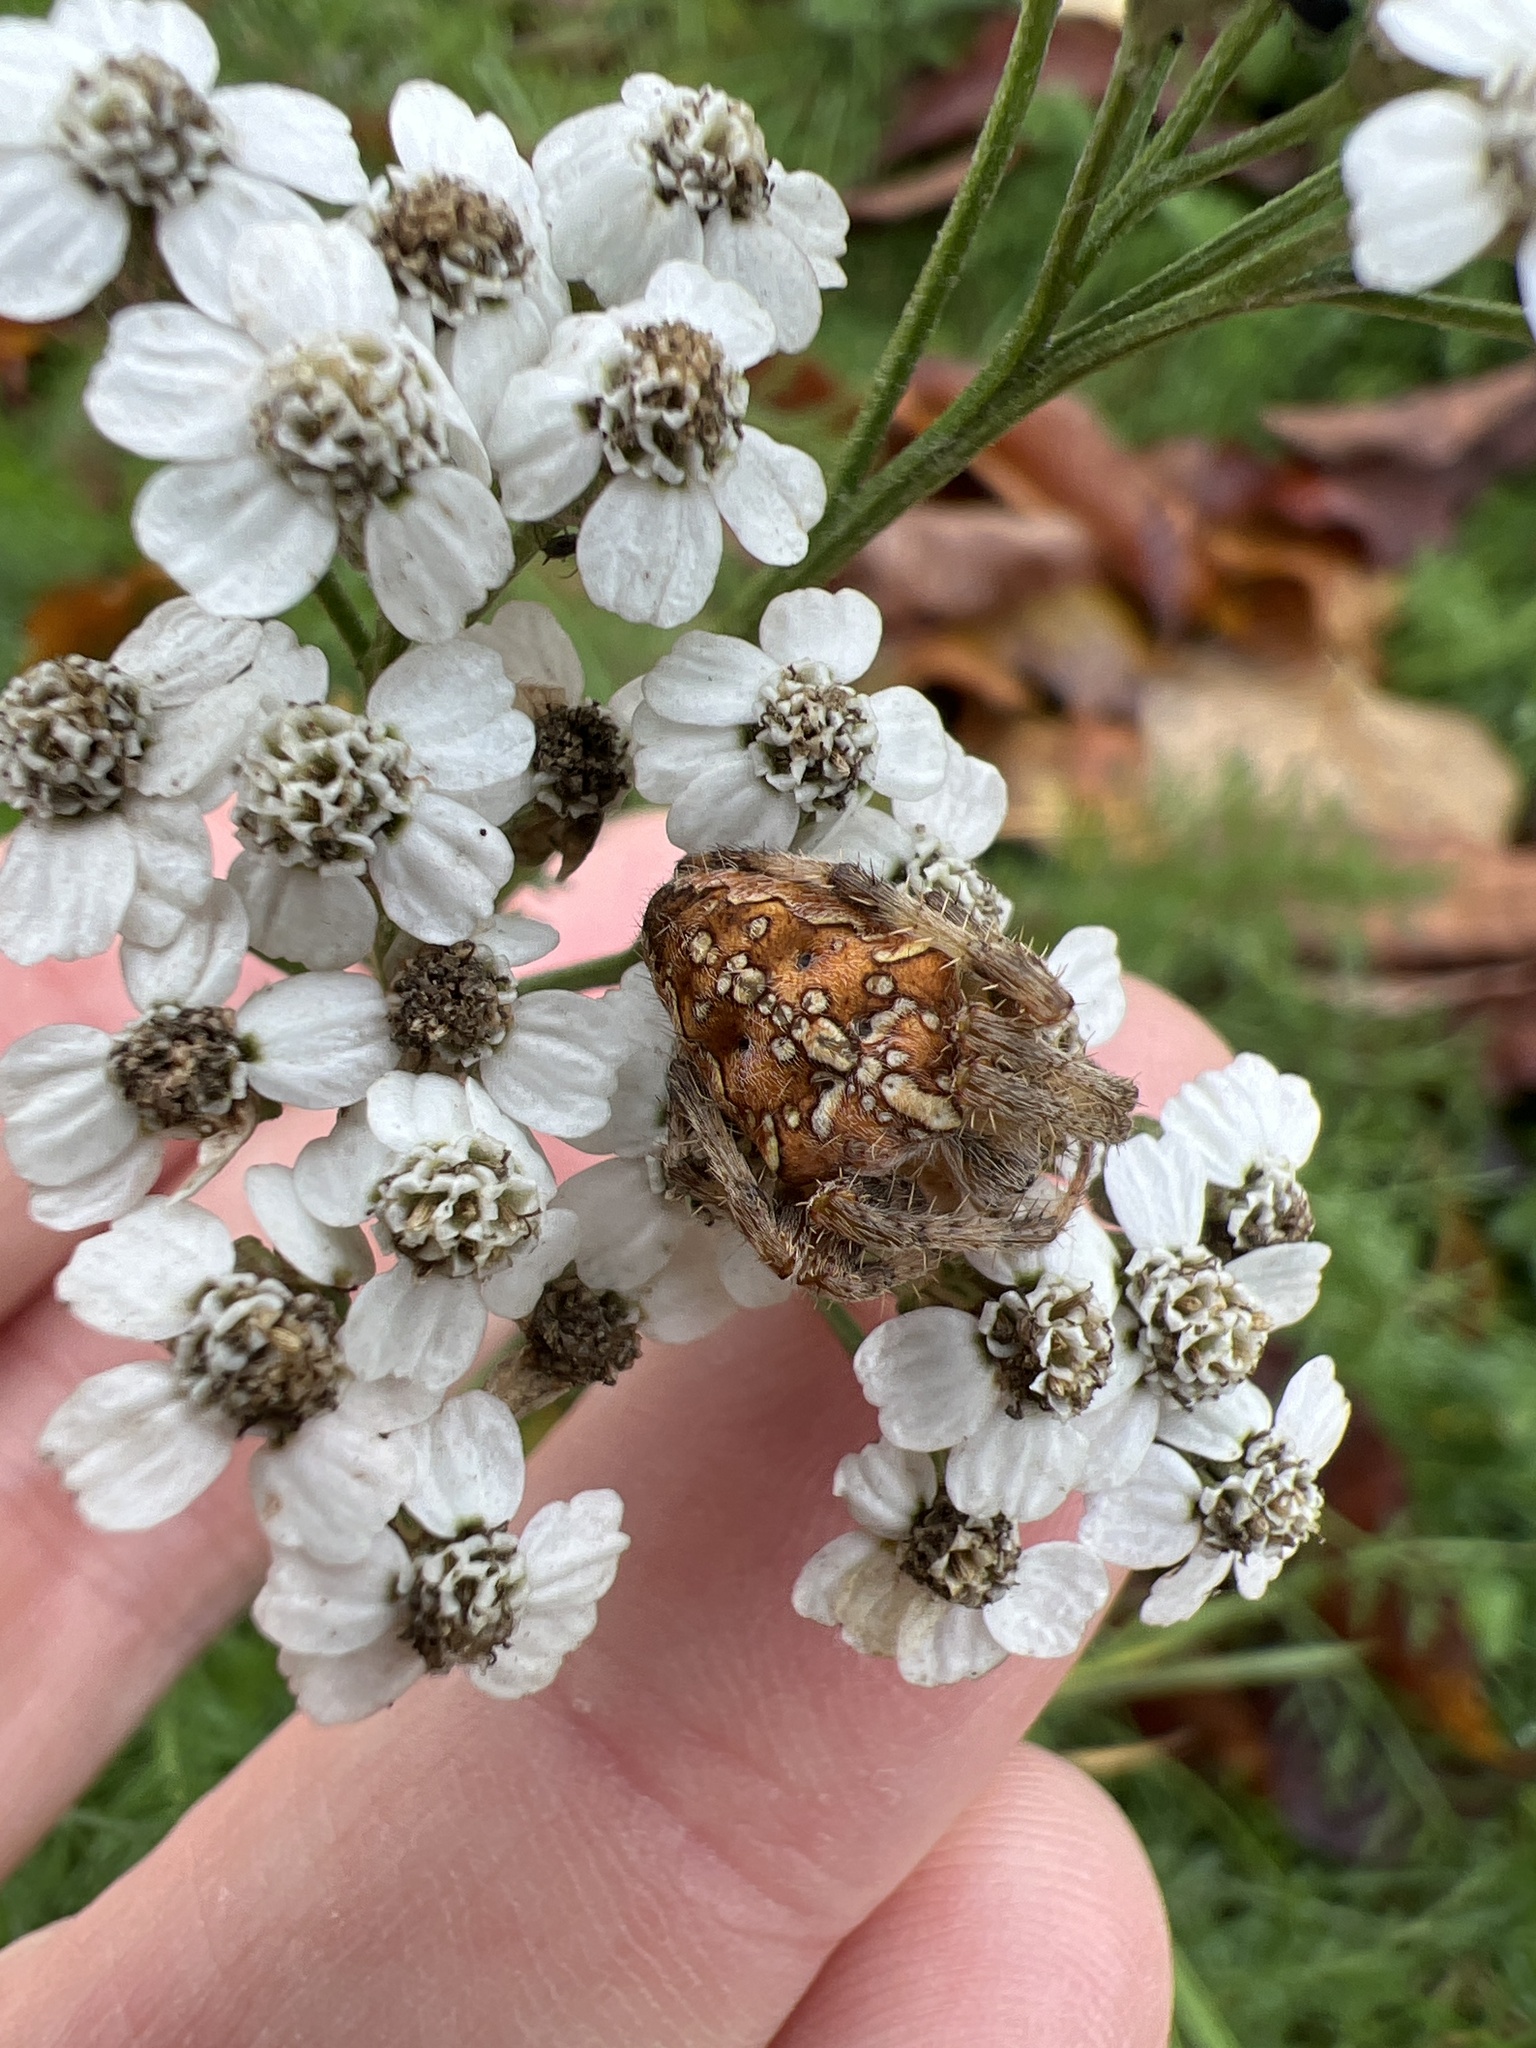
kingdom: Animalia
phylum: Arthropoda
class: Arachnida
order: Araneae
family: Araneidae
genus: Araneus
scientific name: Araneus diadematus
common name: Cross orbweaver
